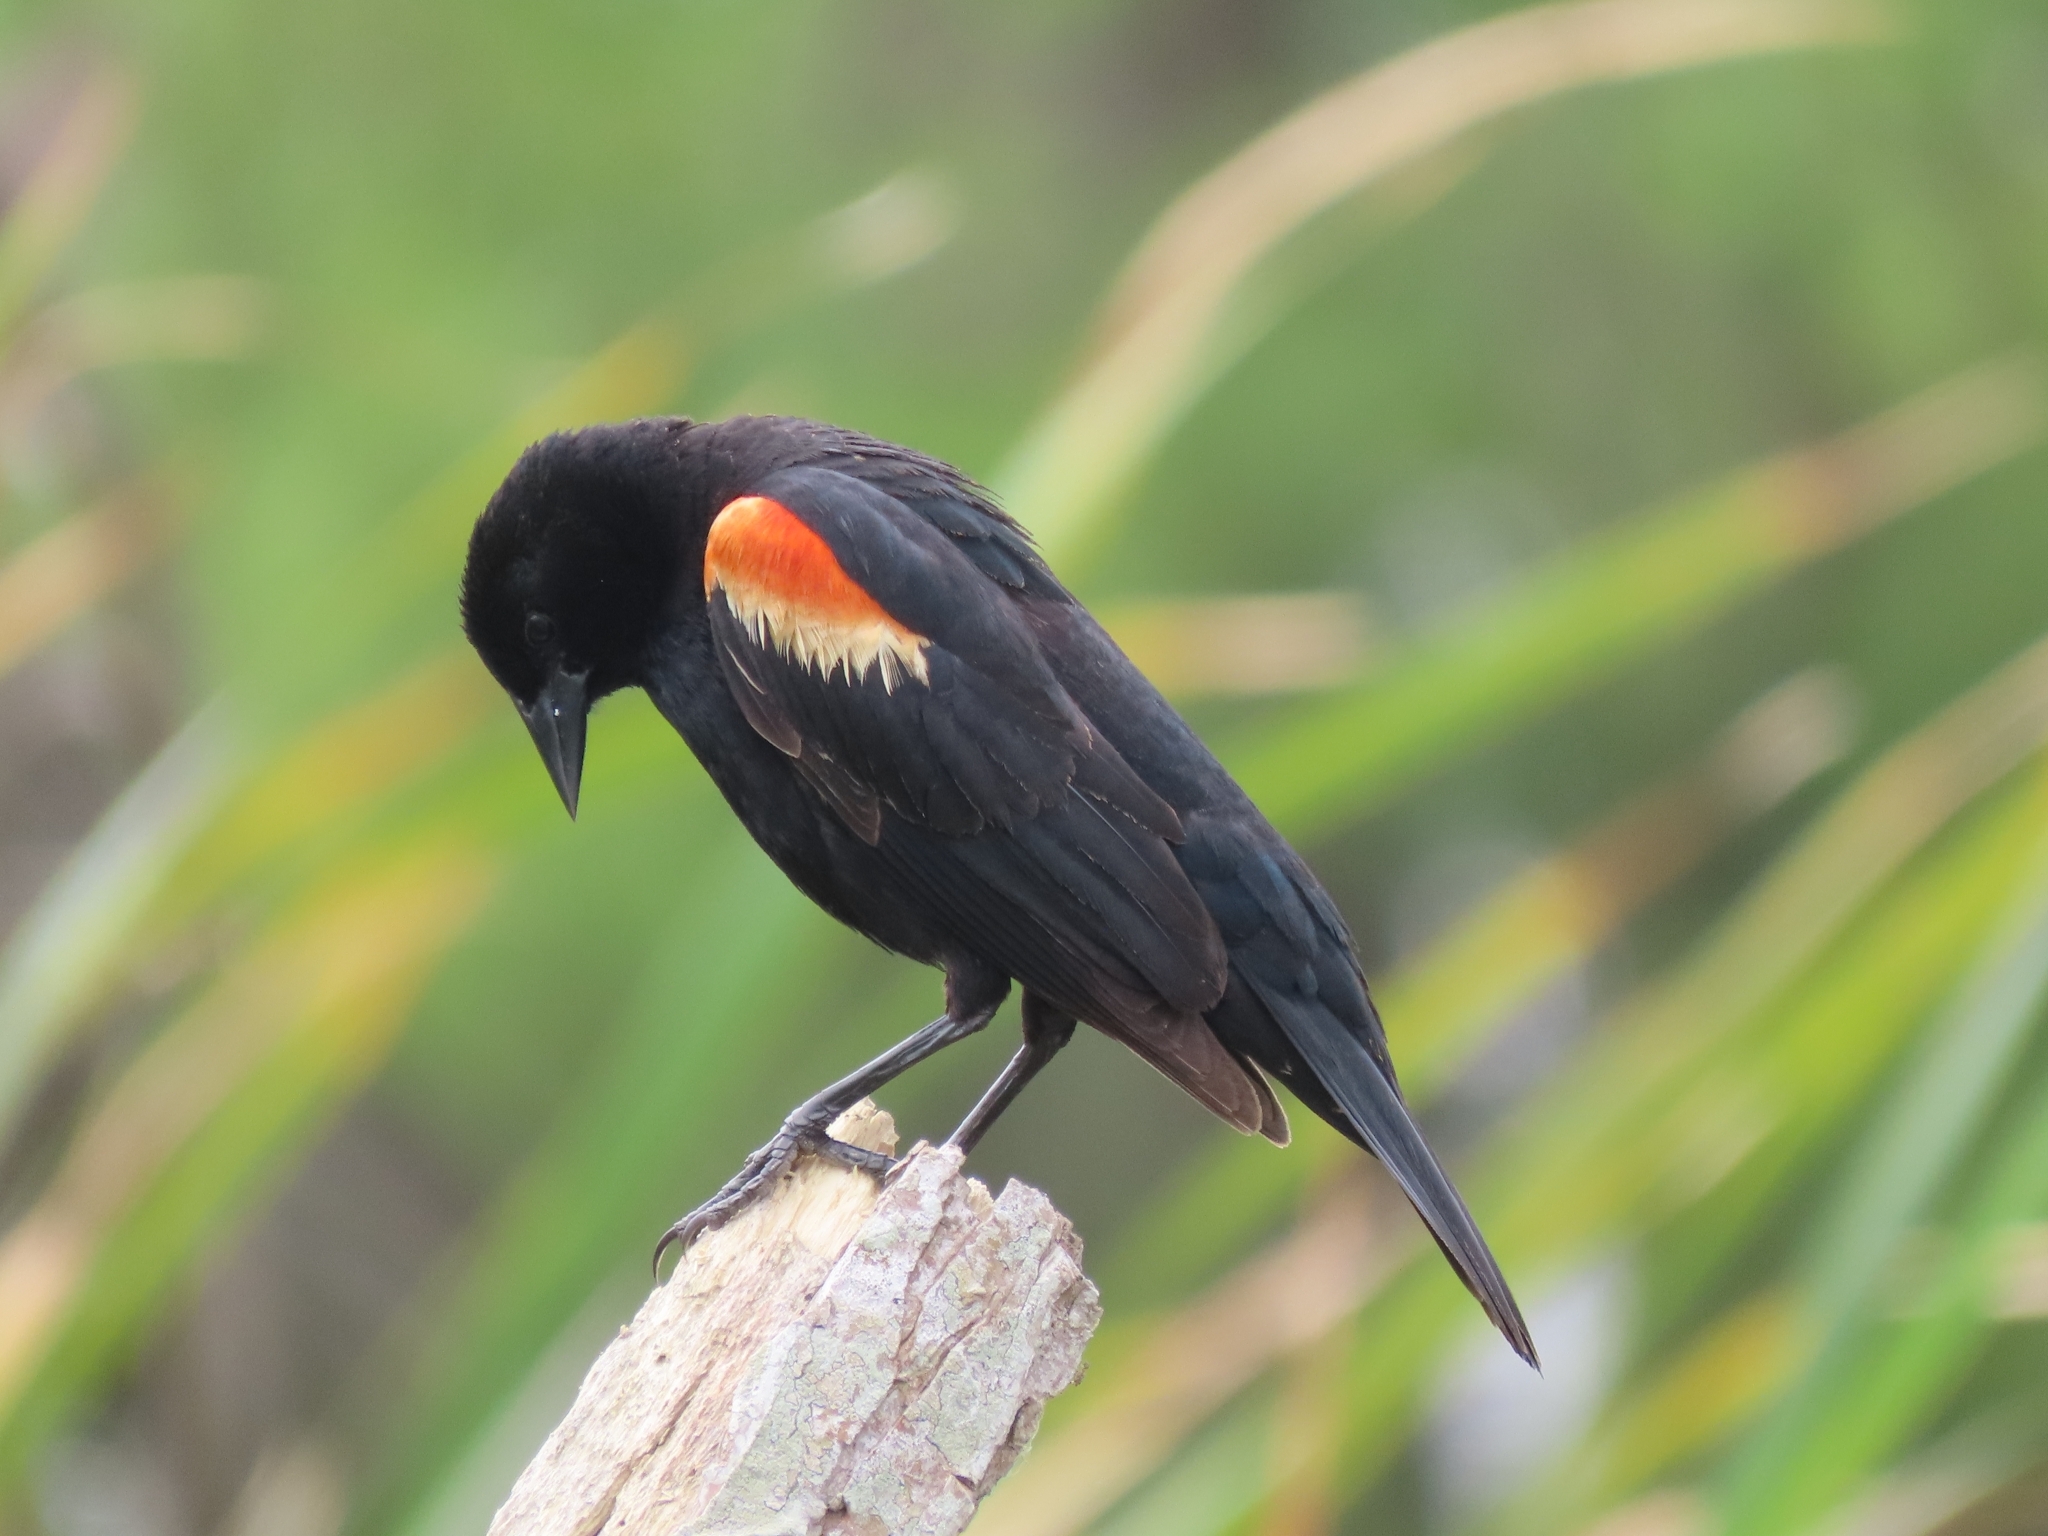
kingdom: Animalia
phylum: Chordata
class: Aves
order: Passeriformes
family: Icteridae
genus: Agelaius
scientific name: Agelaius phoeniceus
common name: Red-winged blackbird
